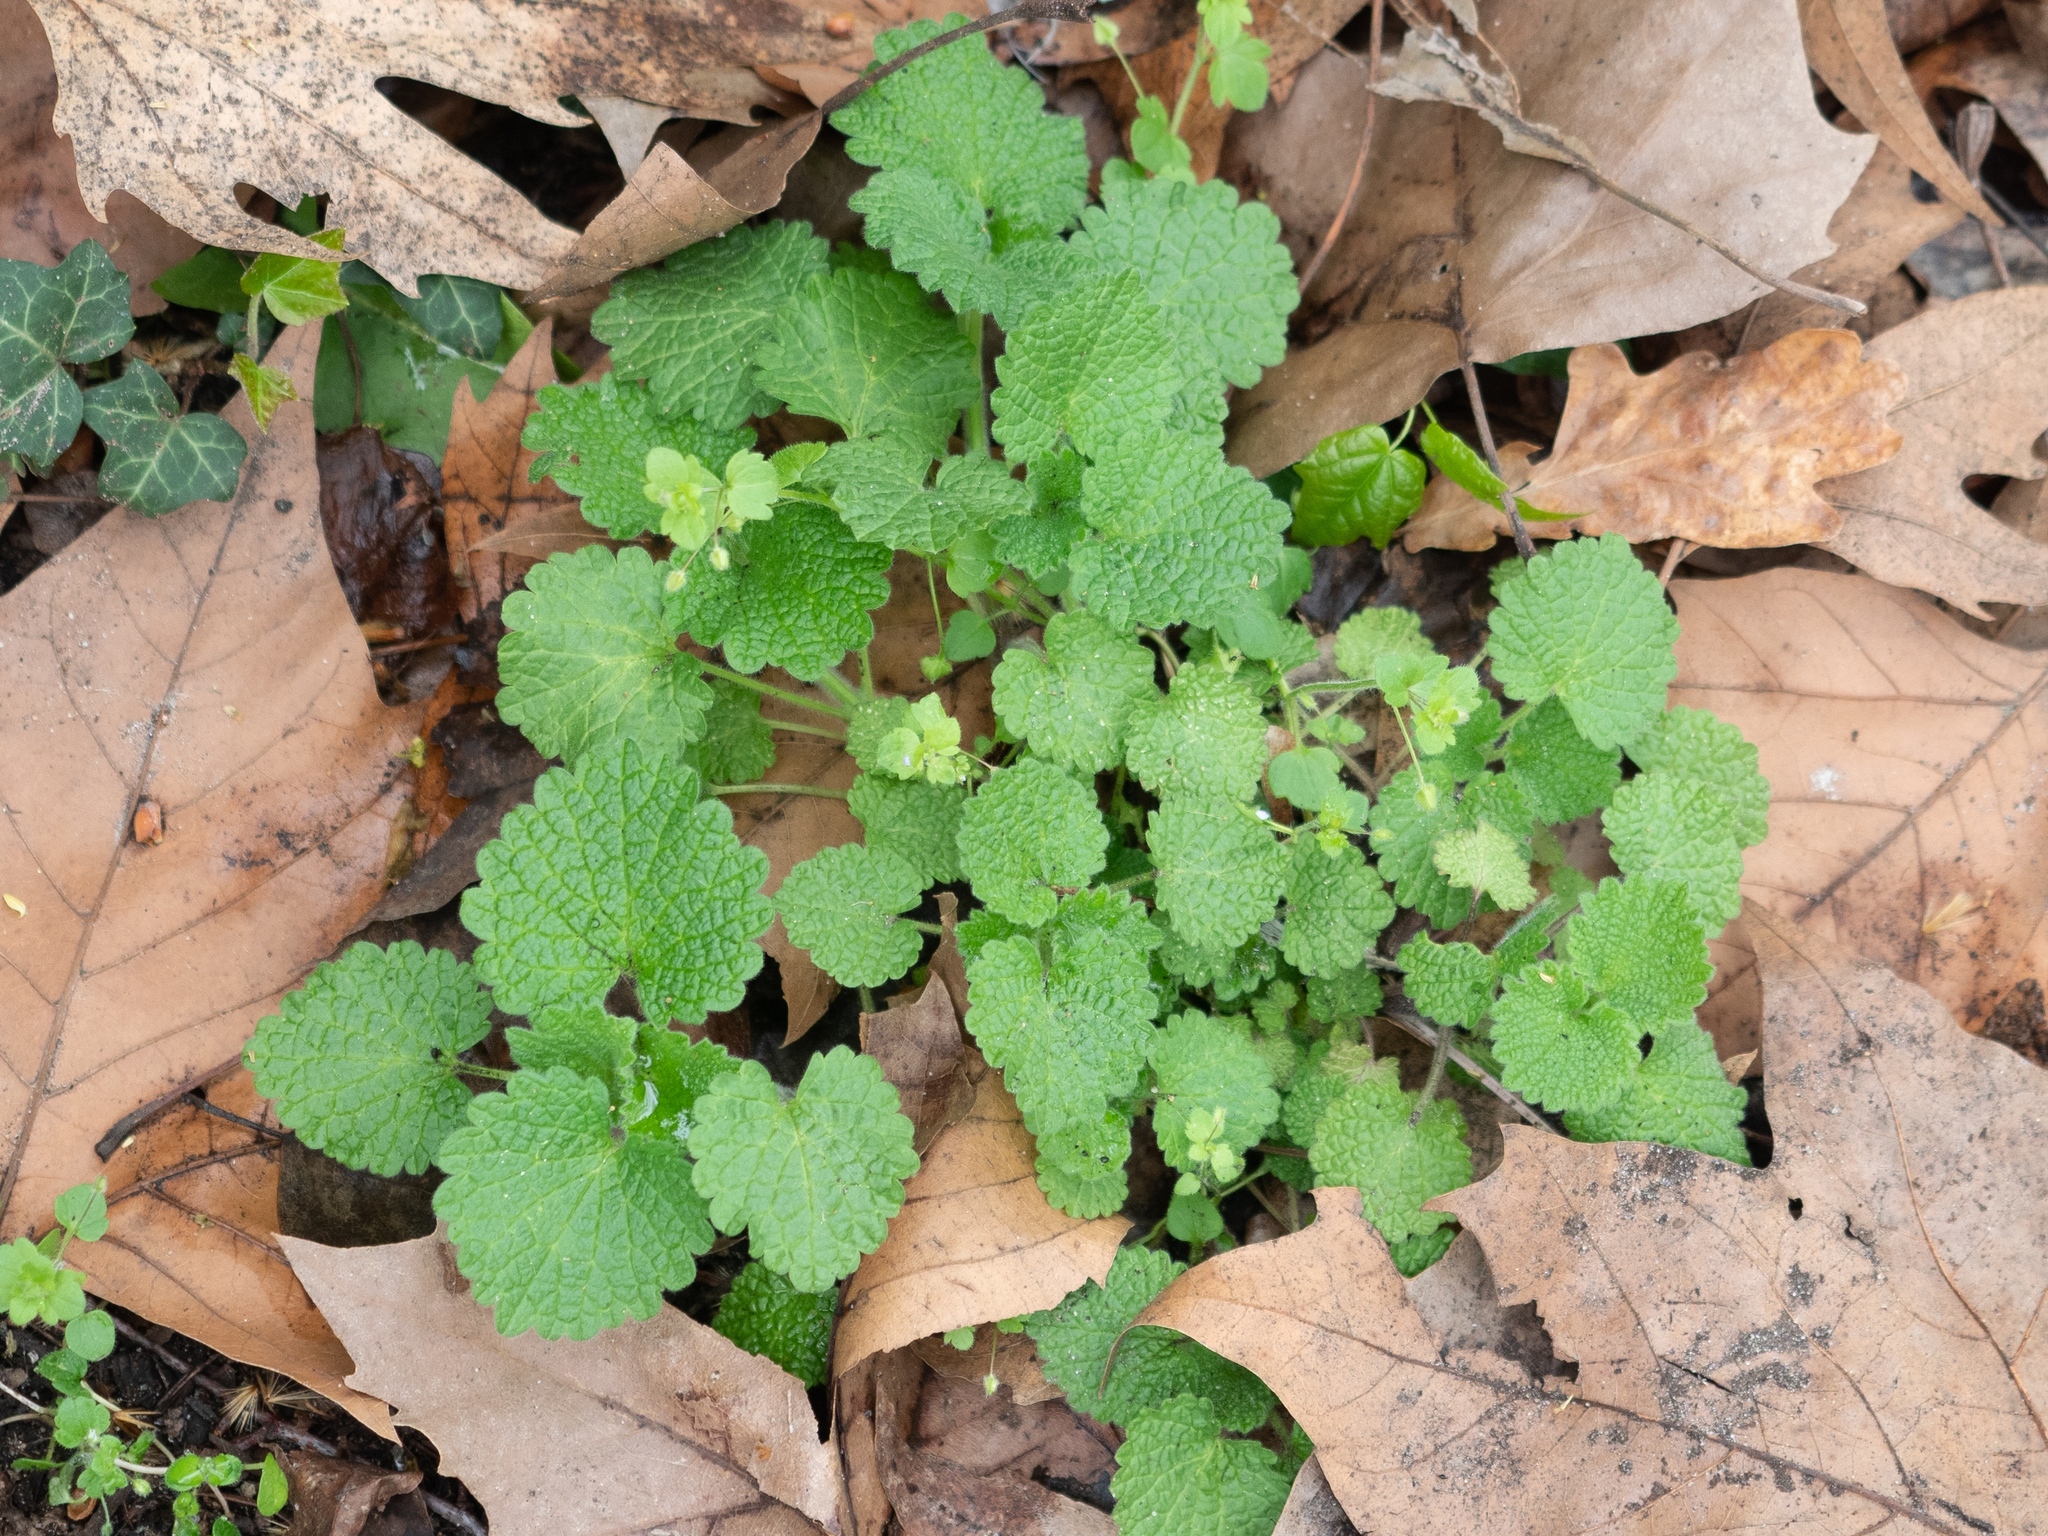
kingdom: Plantae
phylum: Tracheophyta
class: Magnoliopsida
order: Lamiales
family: Lamiaceae
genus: Lamium
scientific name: Lamium purpureum
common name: Red dead-nettle
